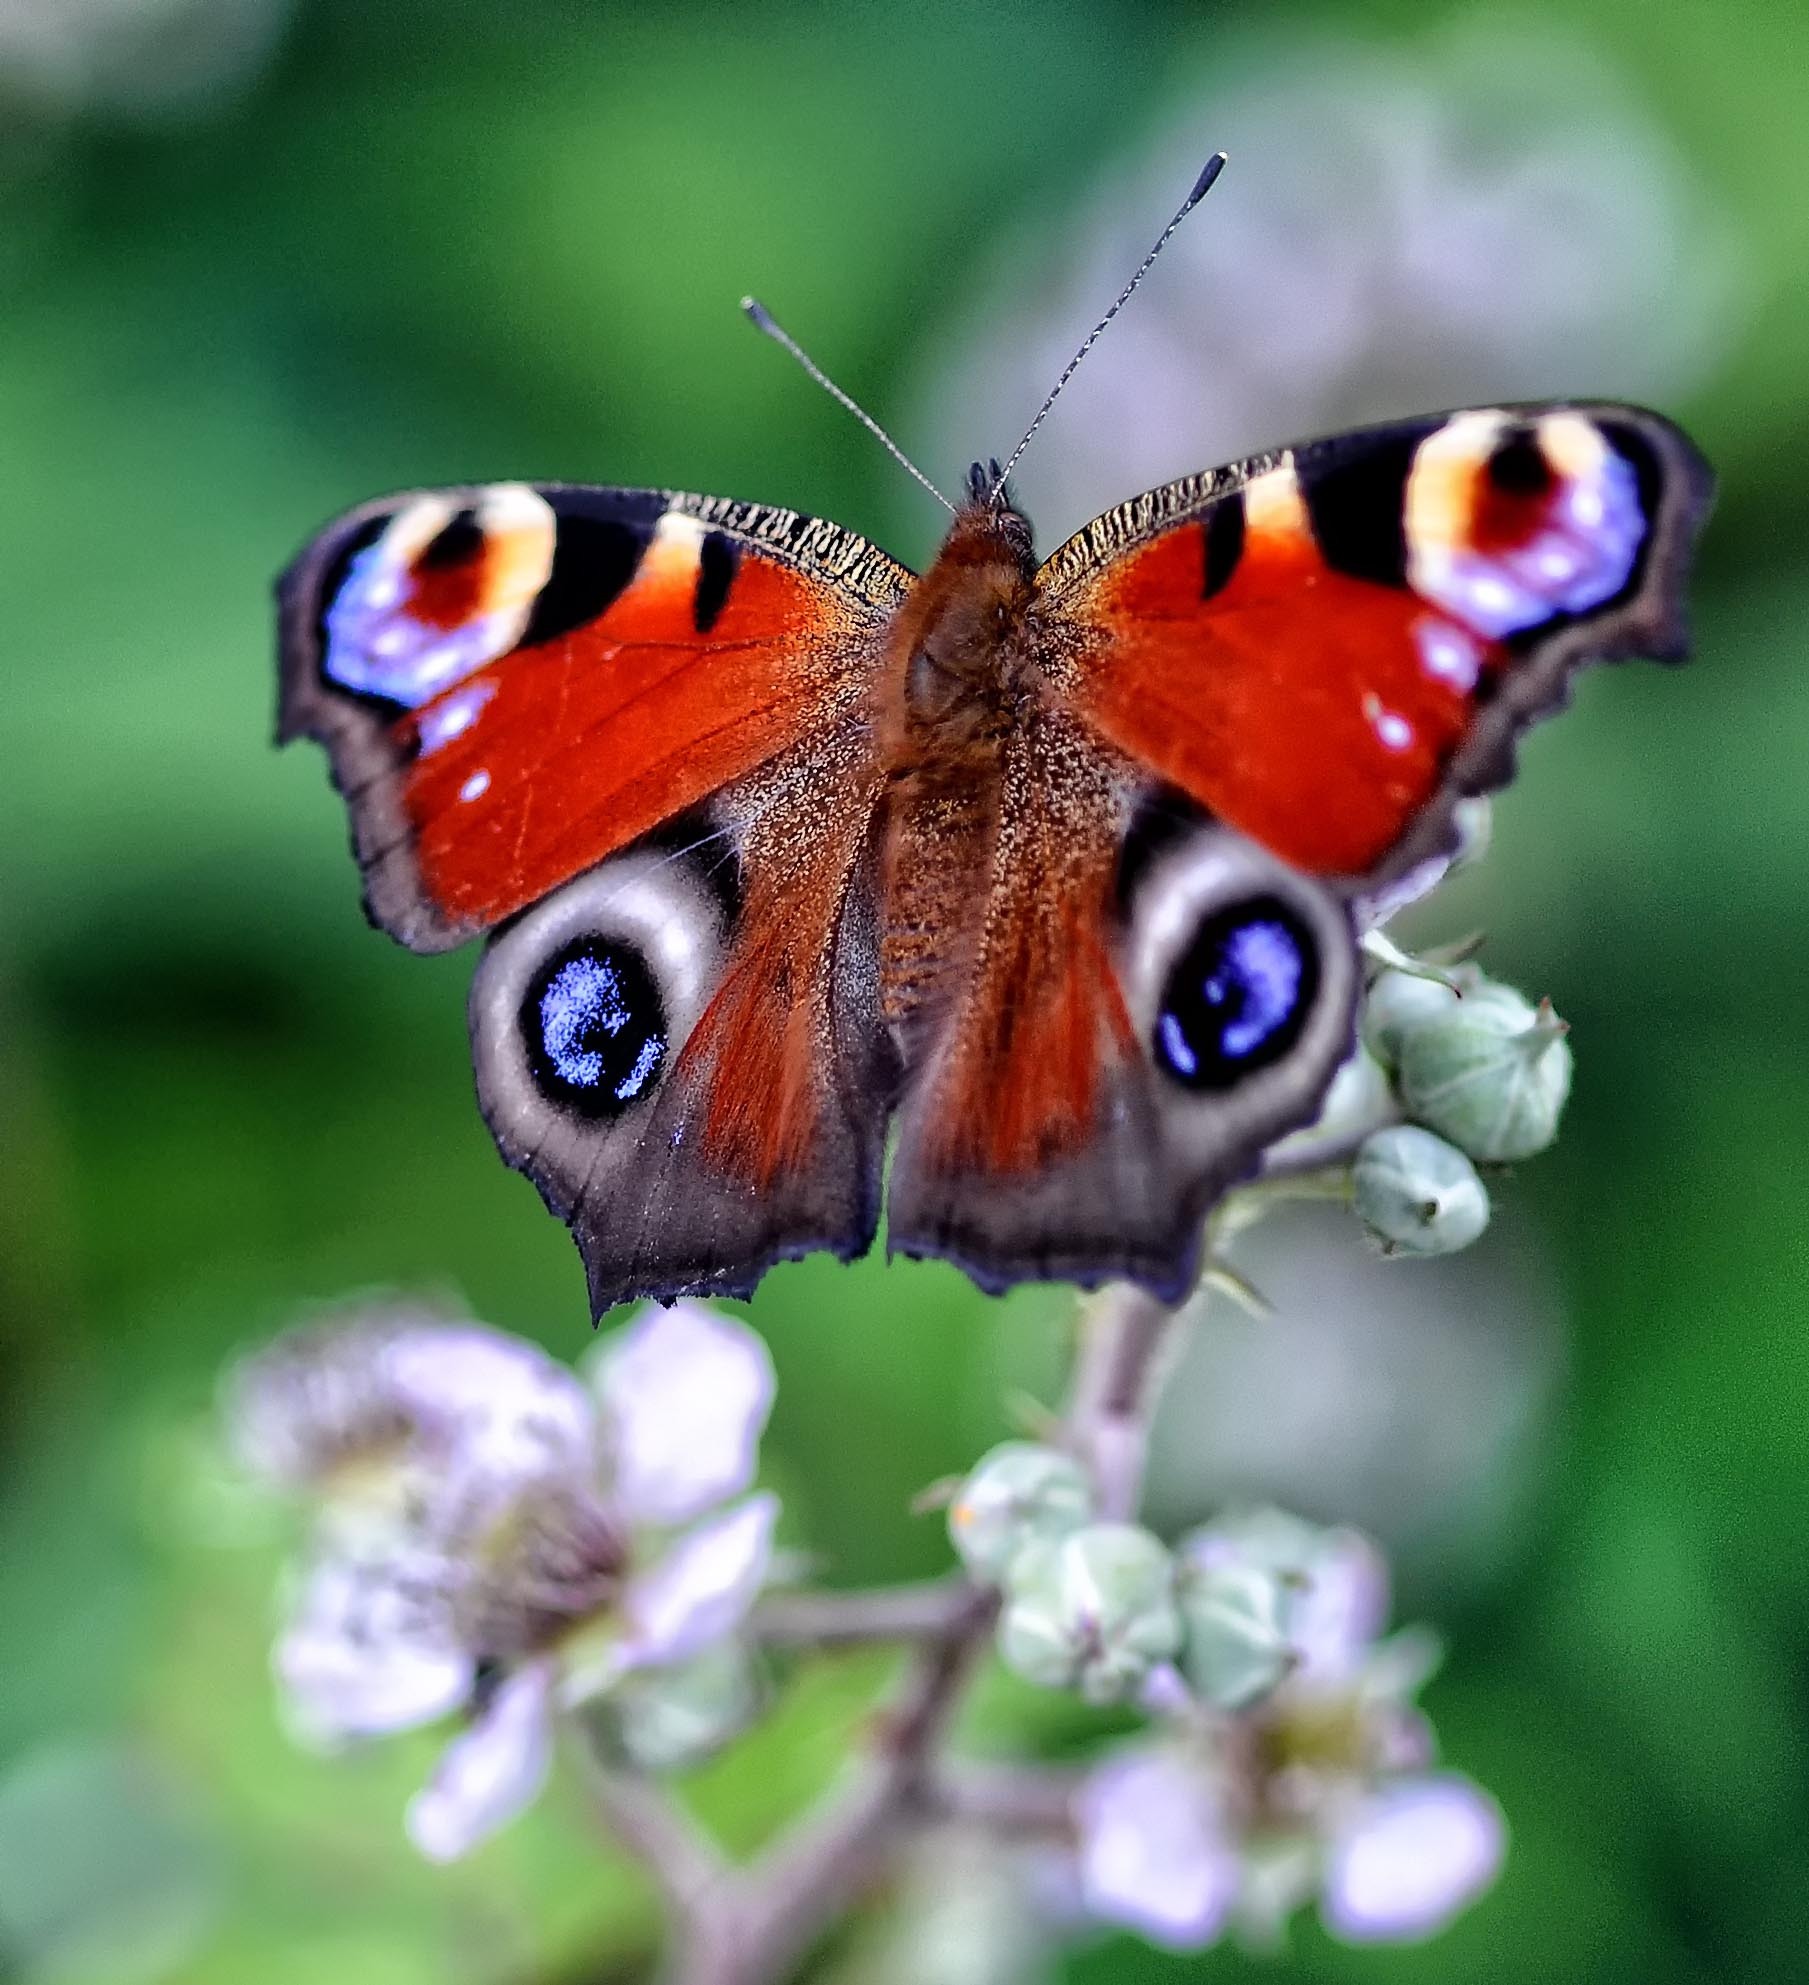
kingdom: Animalia
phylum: Arthropoda
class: Insecta
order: Lepidoptera
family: Nymphalidae
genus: Aglais
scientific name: Aglais io
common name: Peacock
